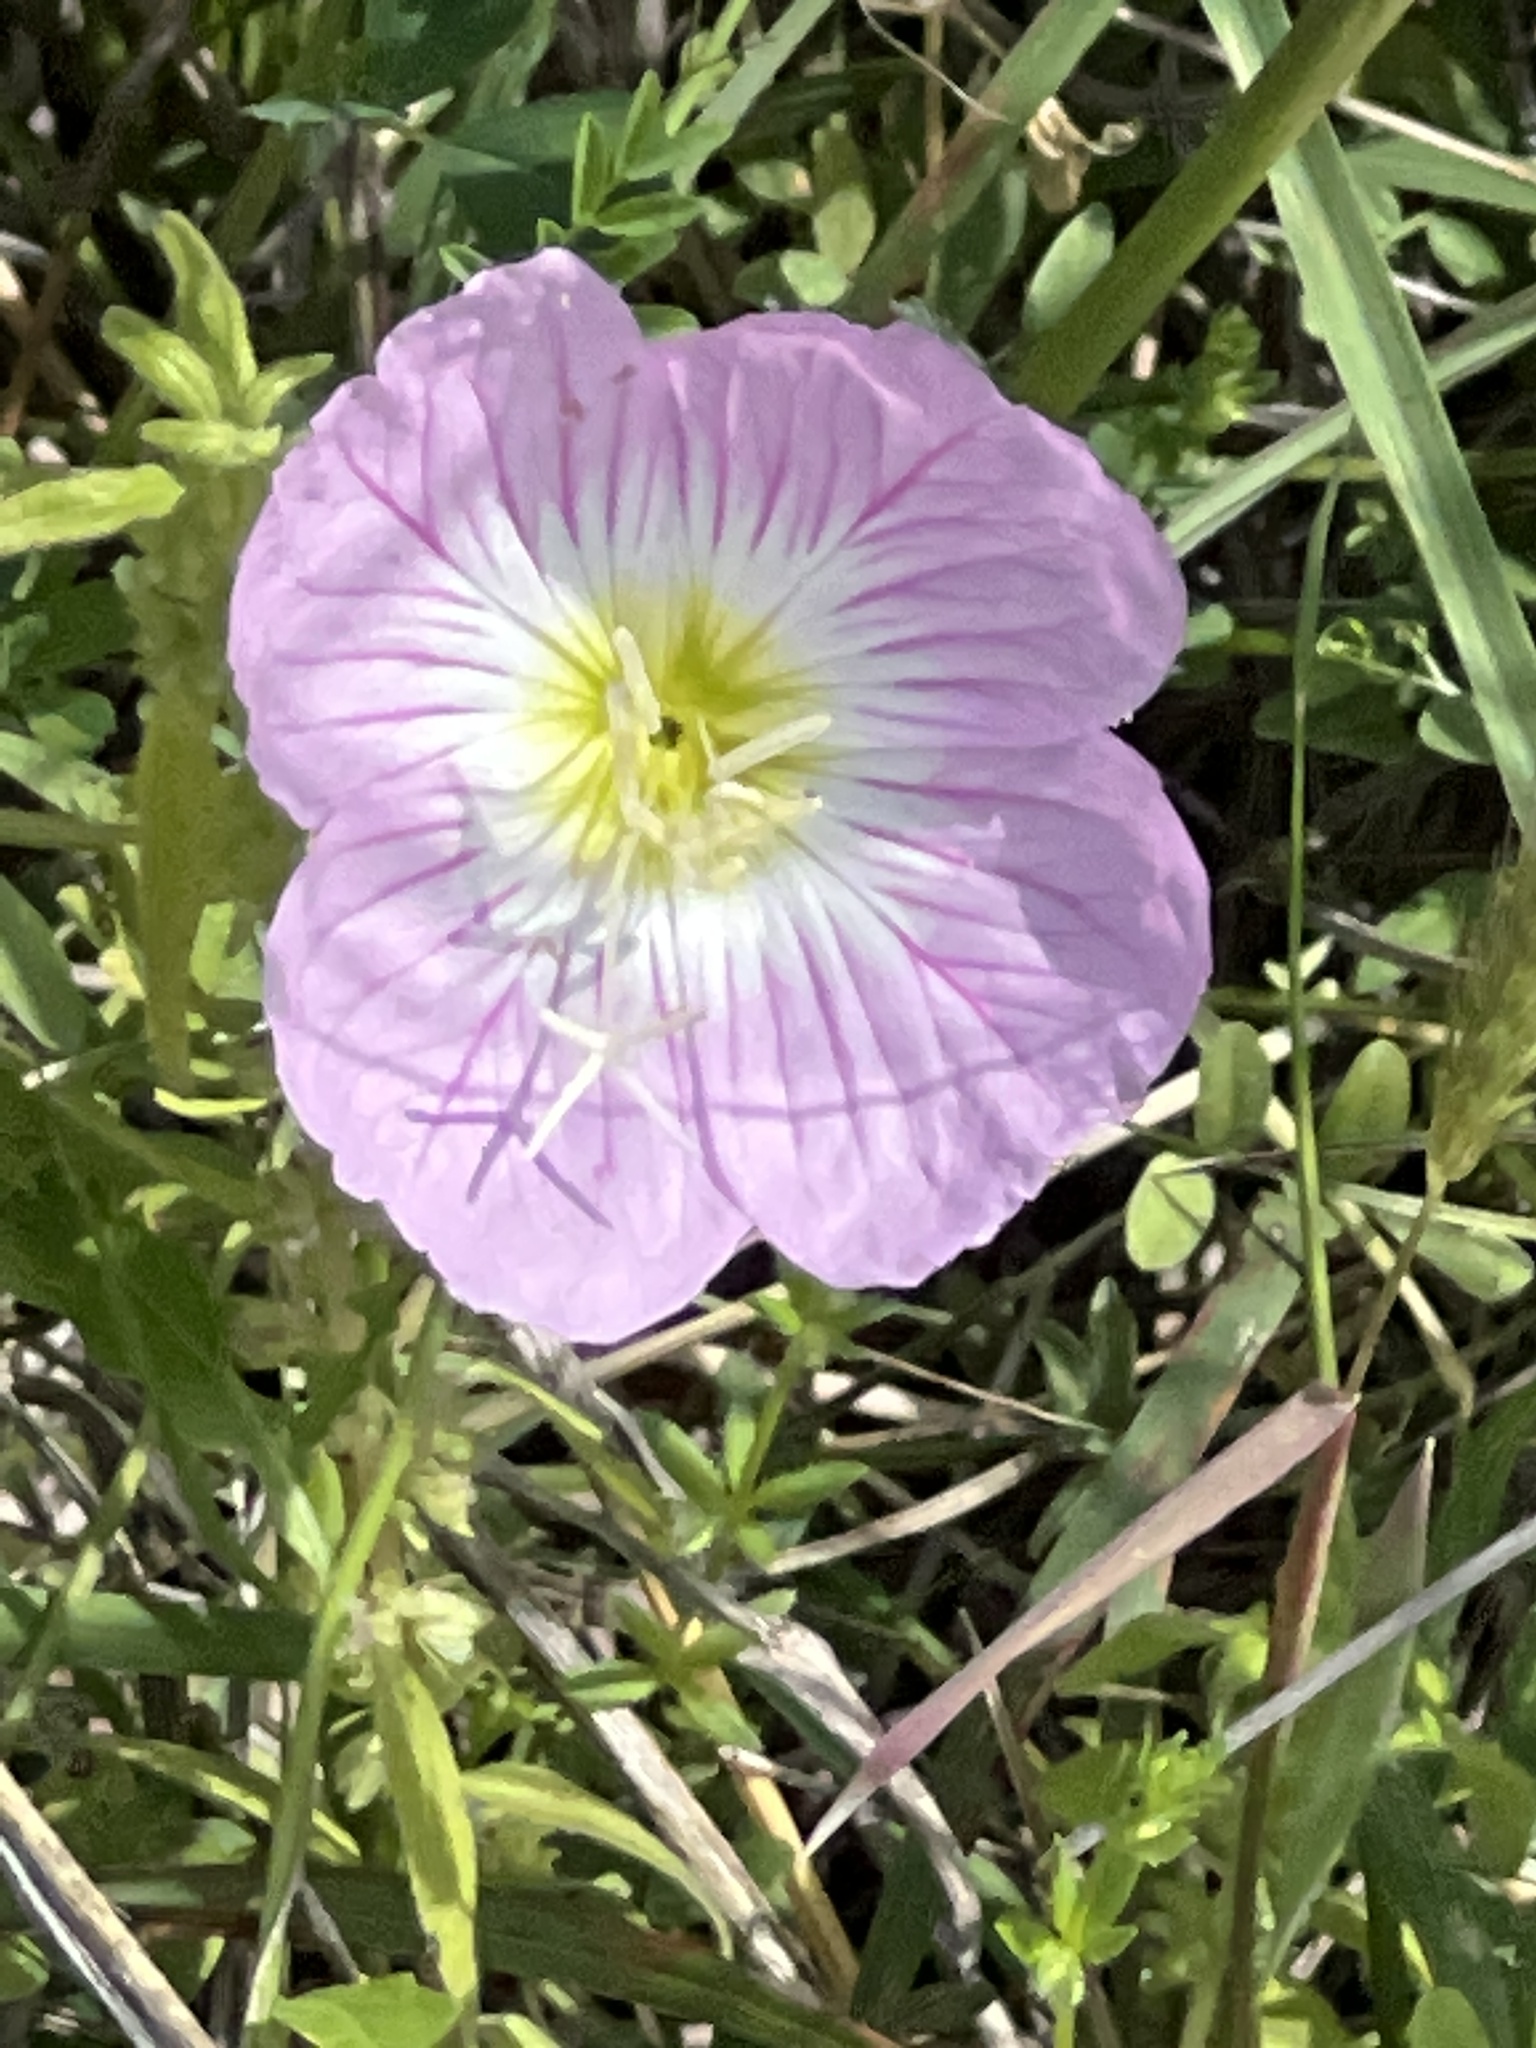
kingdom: Plantae
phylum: Tracheophyta
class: Magnoliopsida
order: Myrtales
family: Onagraceae
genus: Oenothera
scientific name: Oenothera speciosa
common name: White evening-primrose
